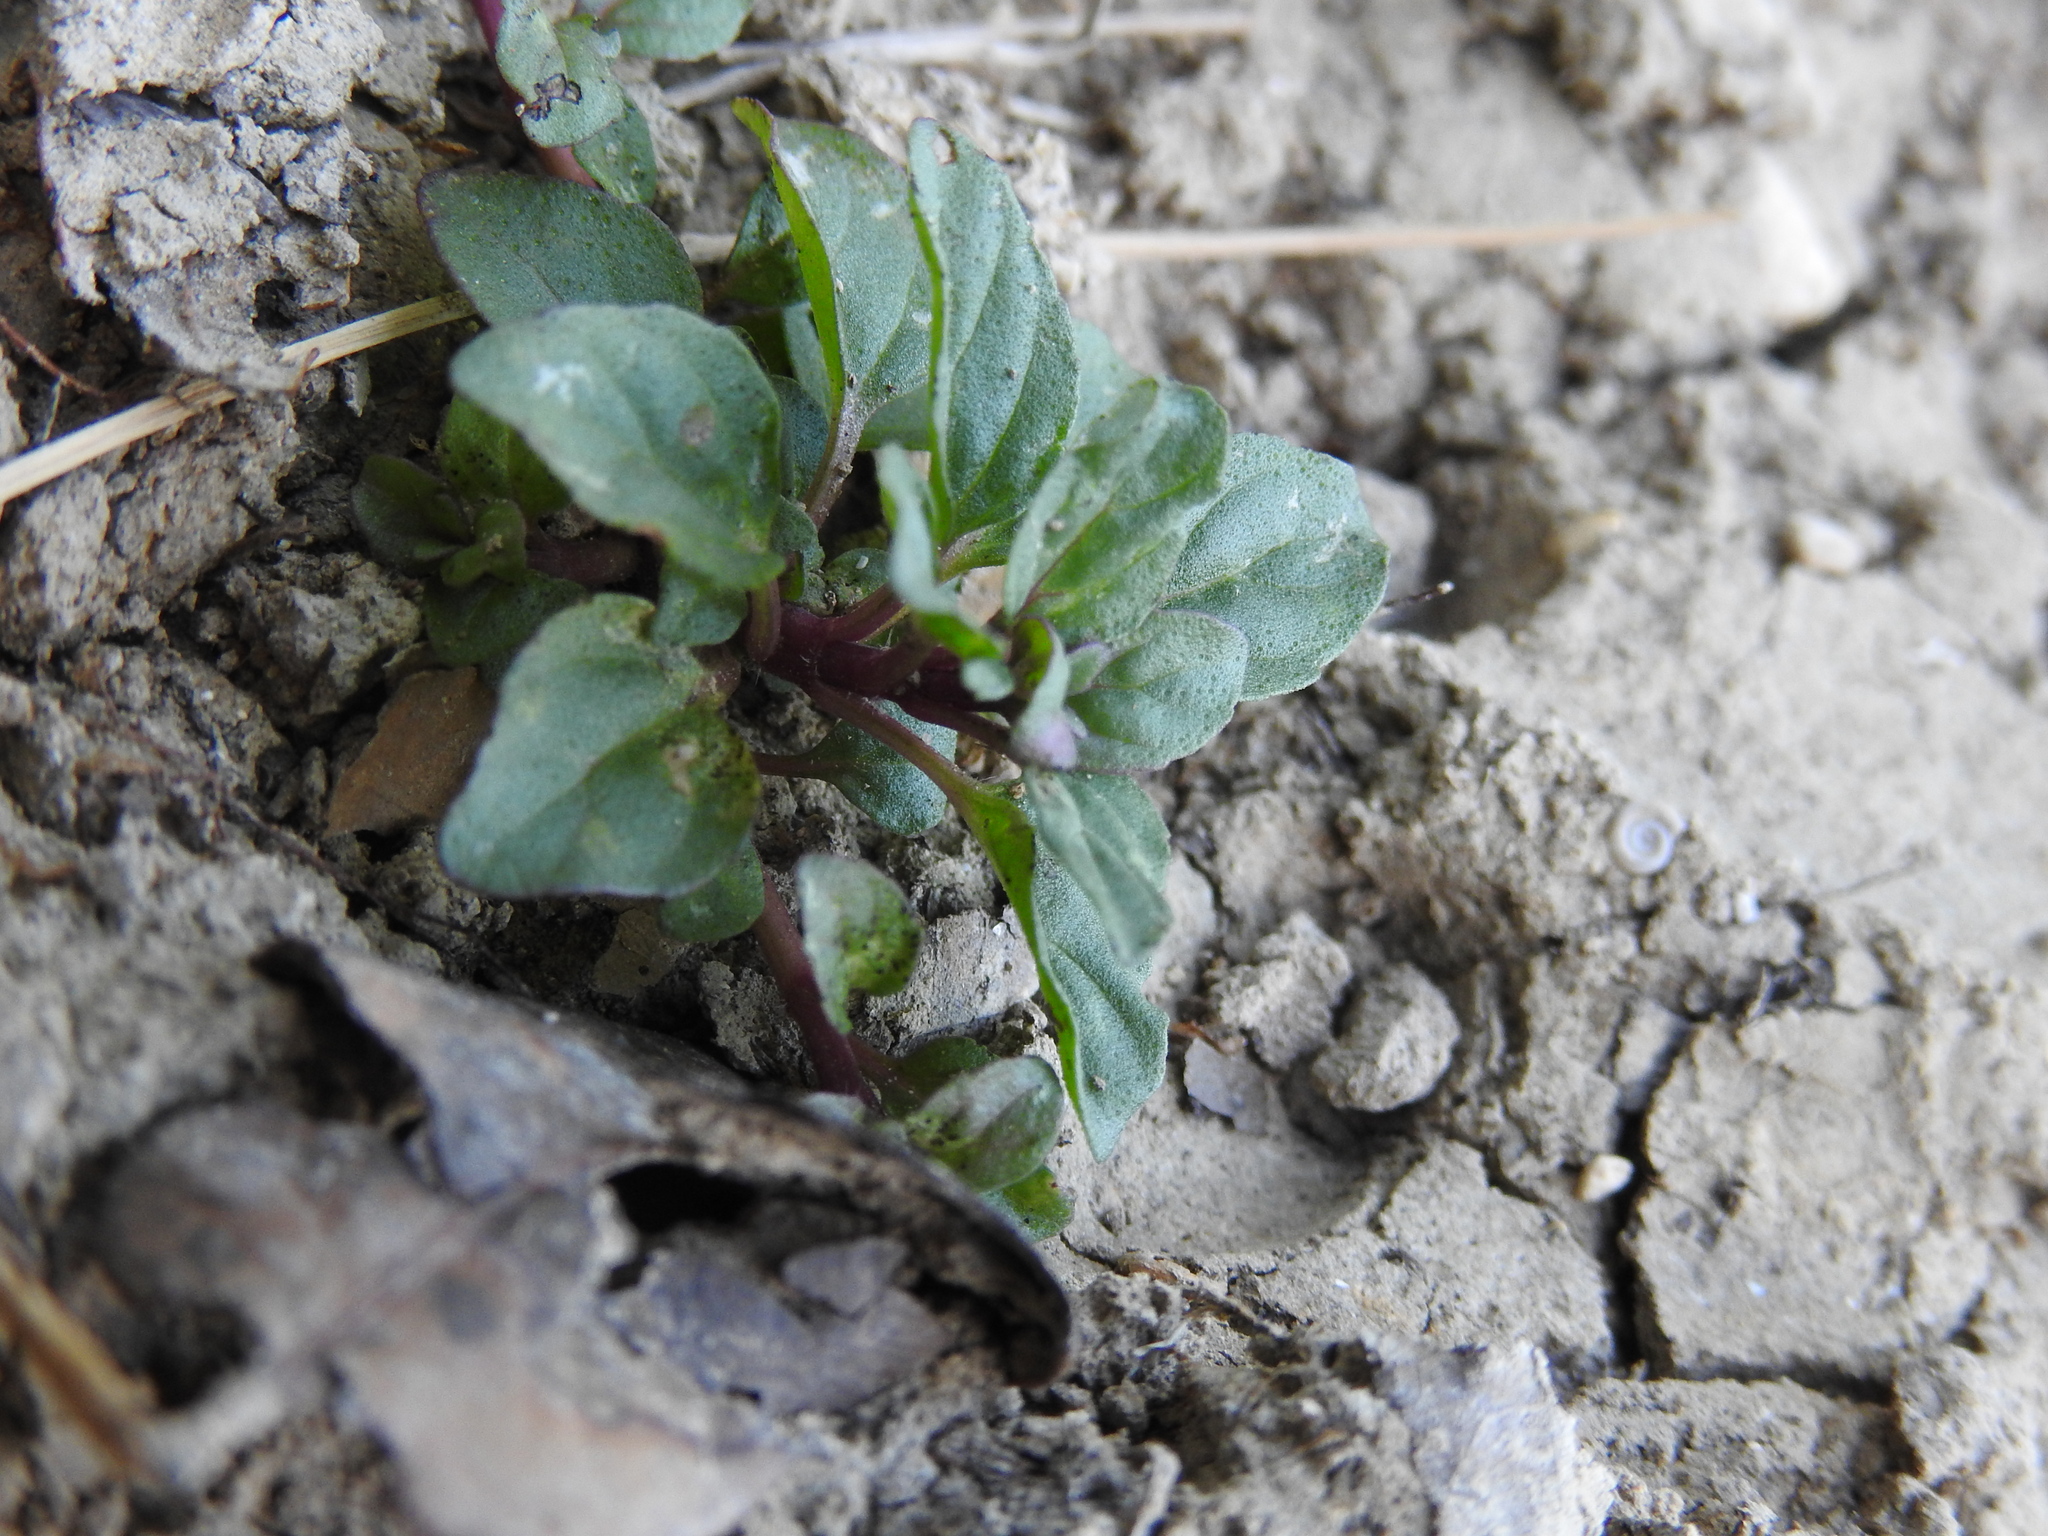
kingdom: Plantae
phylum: Tracheophyta
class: Magnoliopsida
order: Lamiales
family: Lamiaceae
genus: Mentha
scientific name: Mentha pulegium
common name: Pennyroyal
